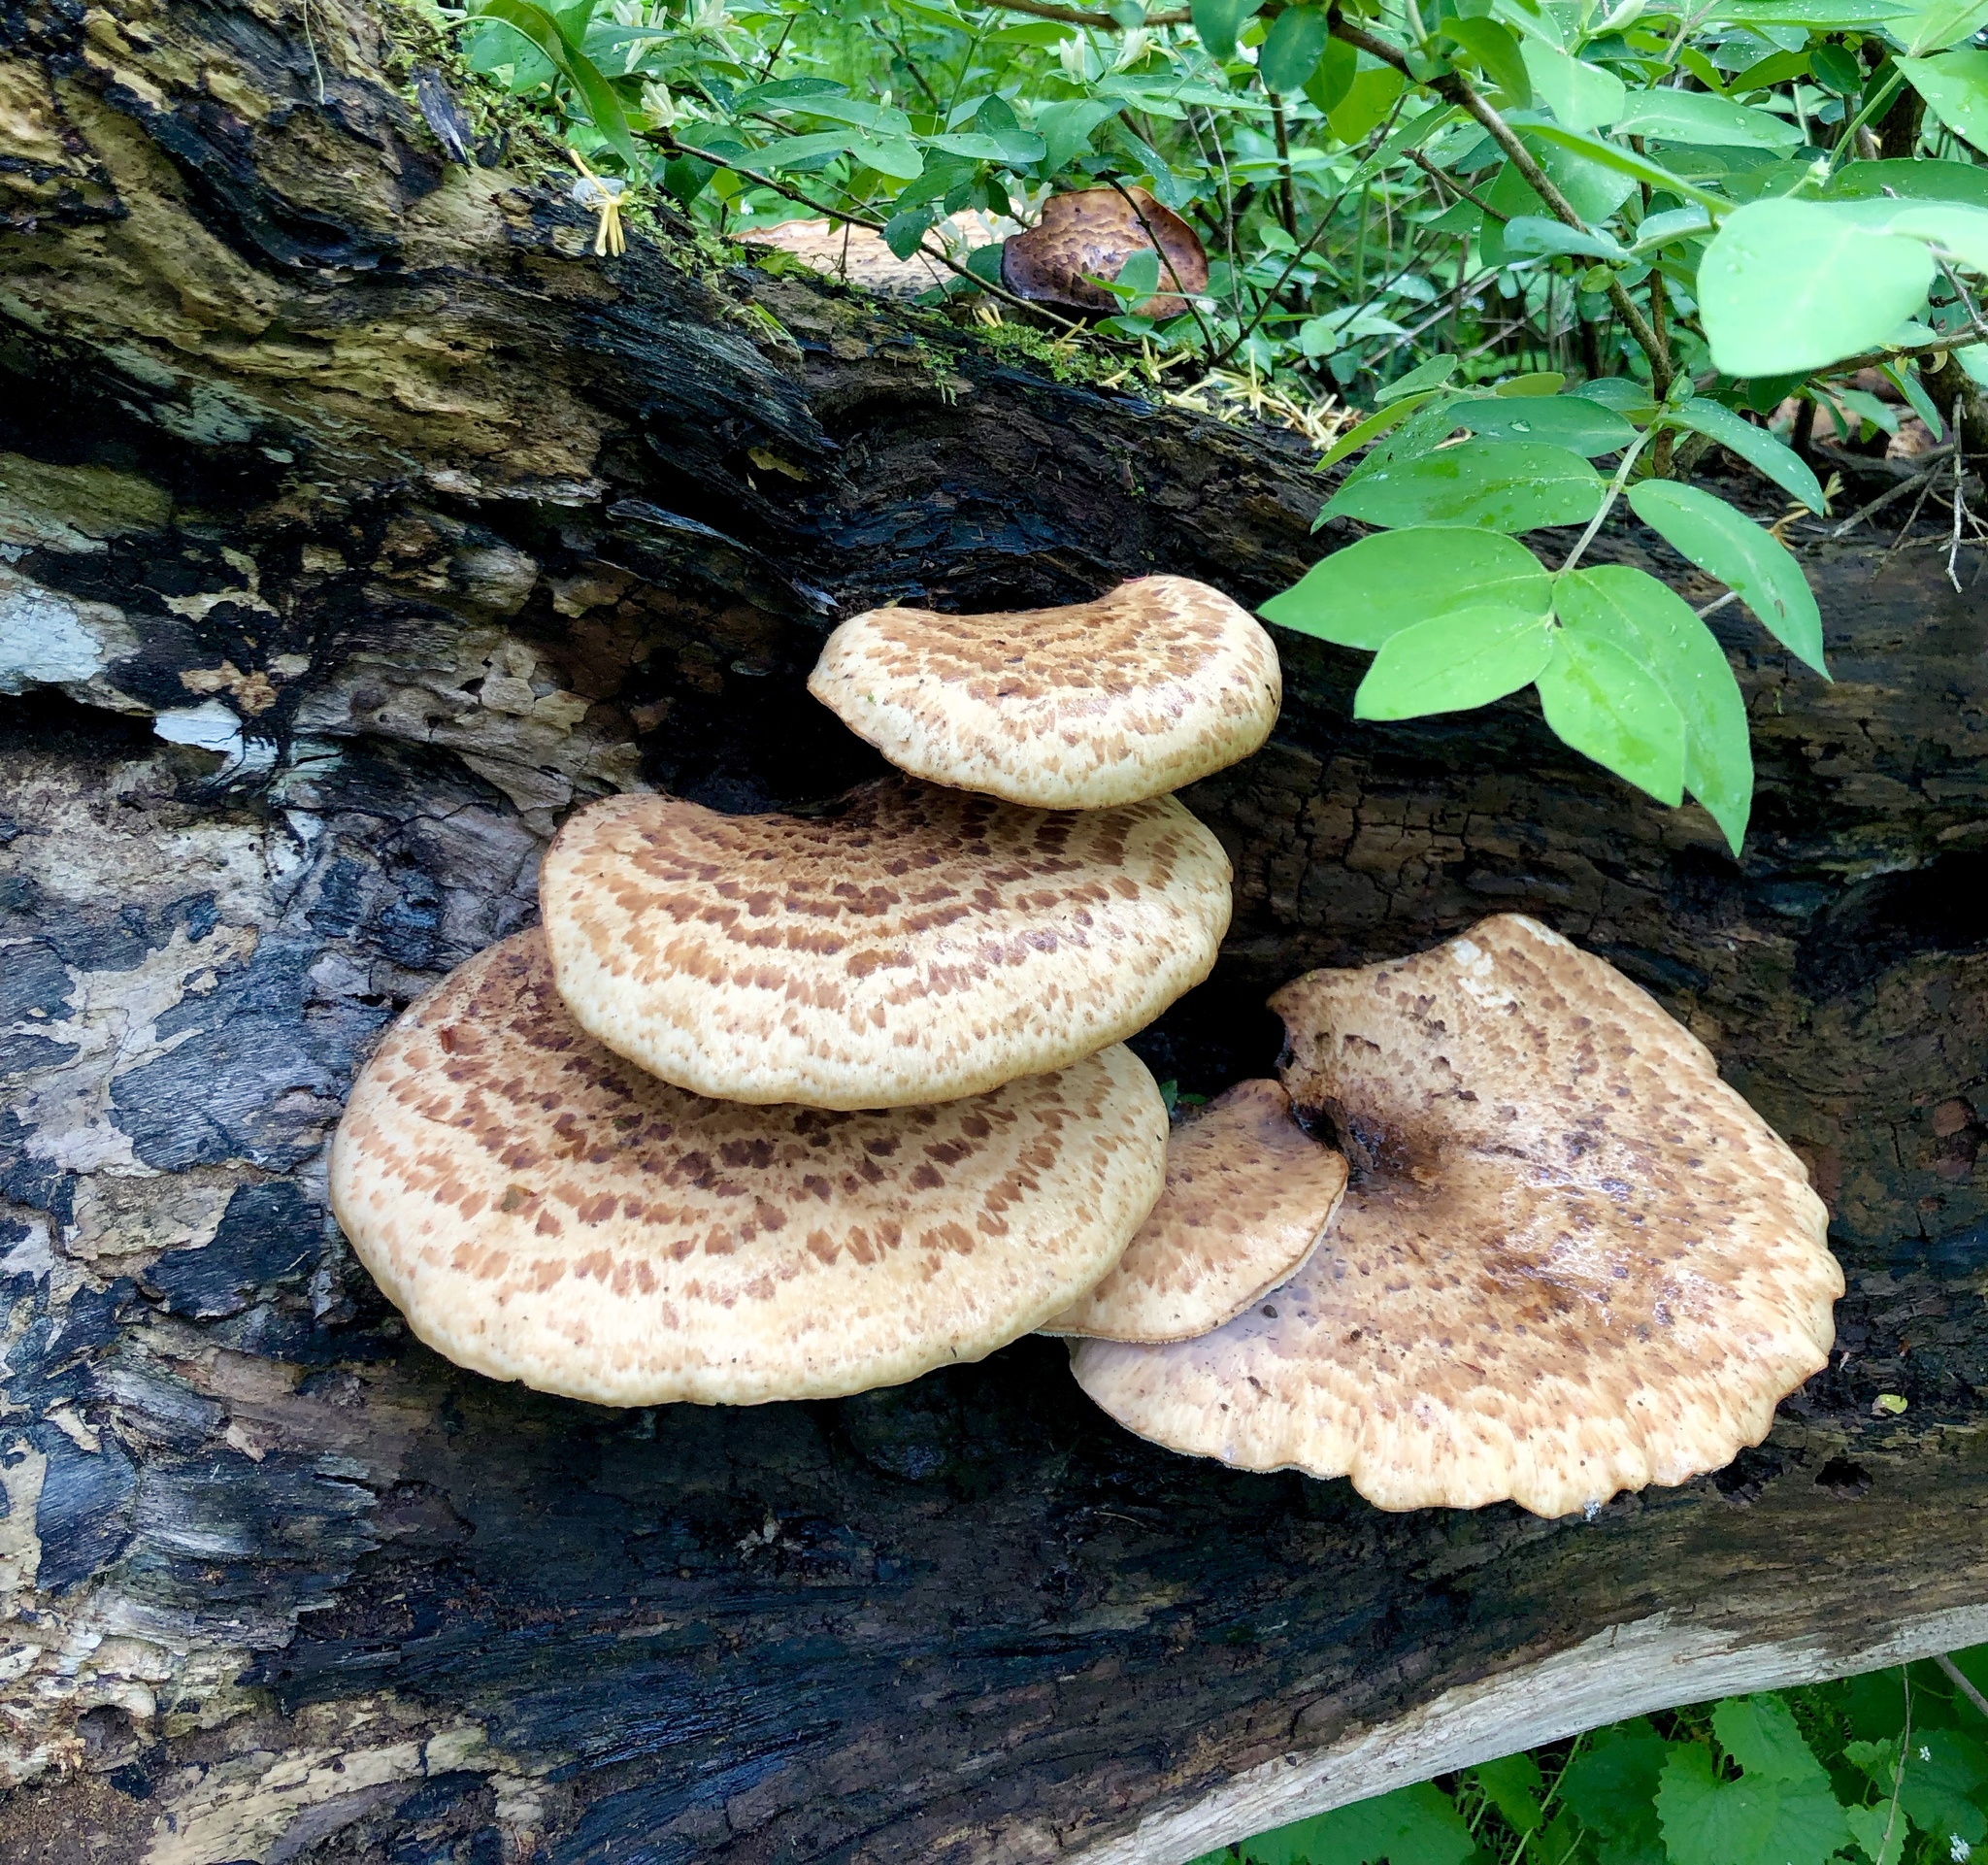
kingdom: Fungi
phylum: Basidiomycota
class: Agaricomycetes
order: Polyporales
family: Polyporaceae
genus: Cerioporus
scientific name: Cerioporus squamosus
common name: Dryad's saddle
